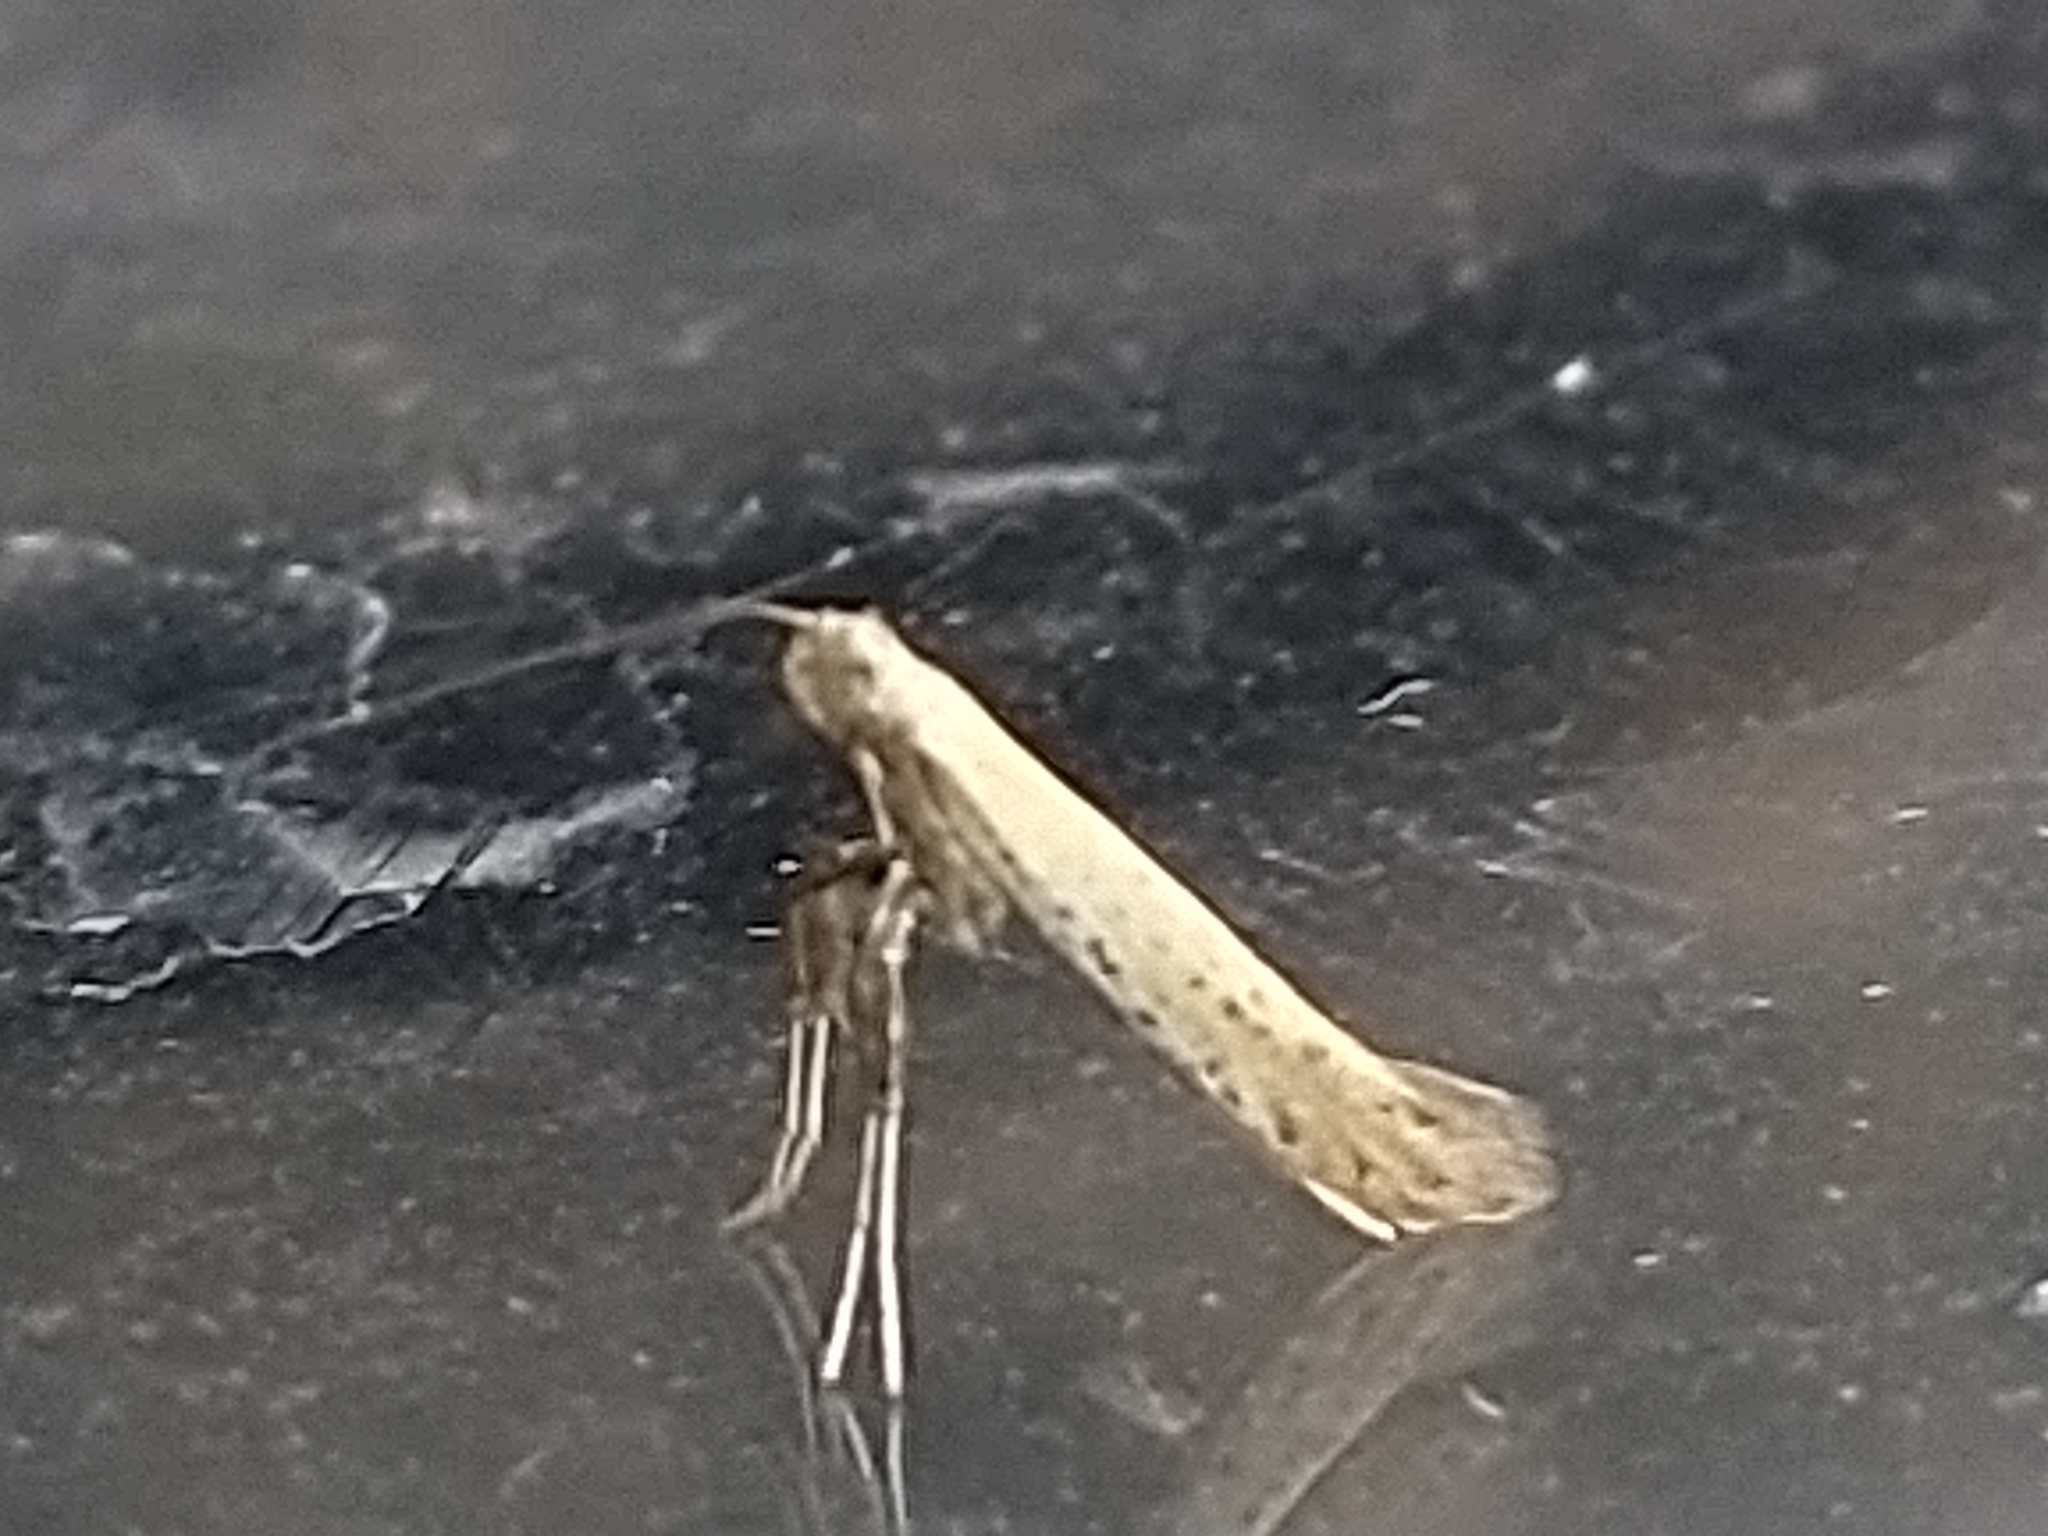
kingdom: Animalia
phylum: Arthropoda
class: Insecta
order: Lepidoptera
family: Gracillariidae
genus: Aspilapteryx
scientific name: Aspilapteryx tringipennella
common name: Ribwort slender
